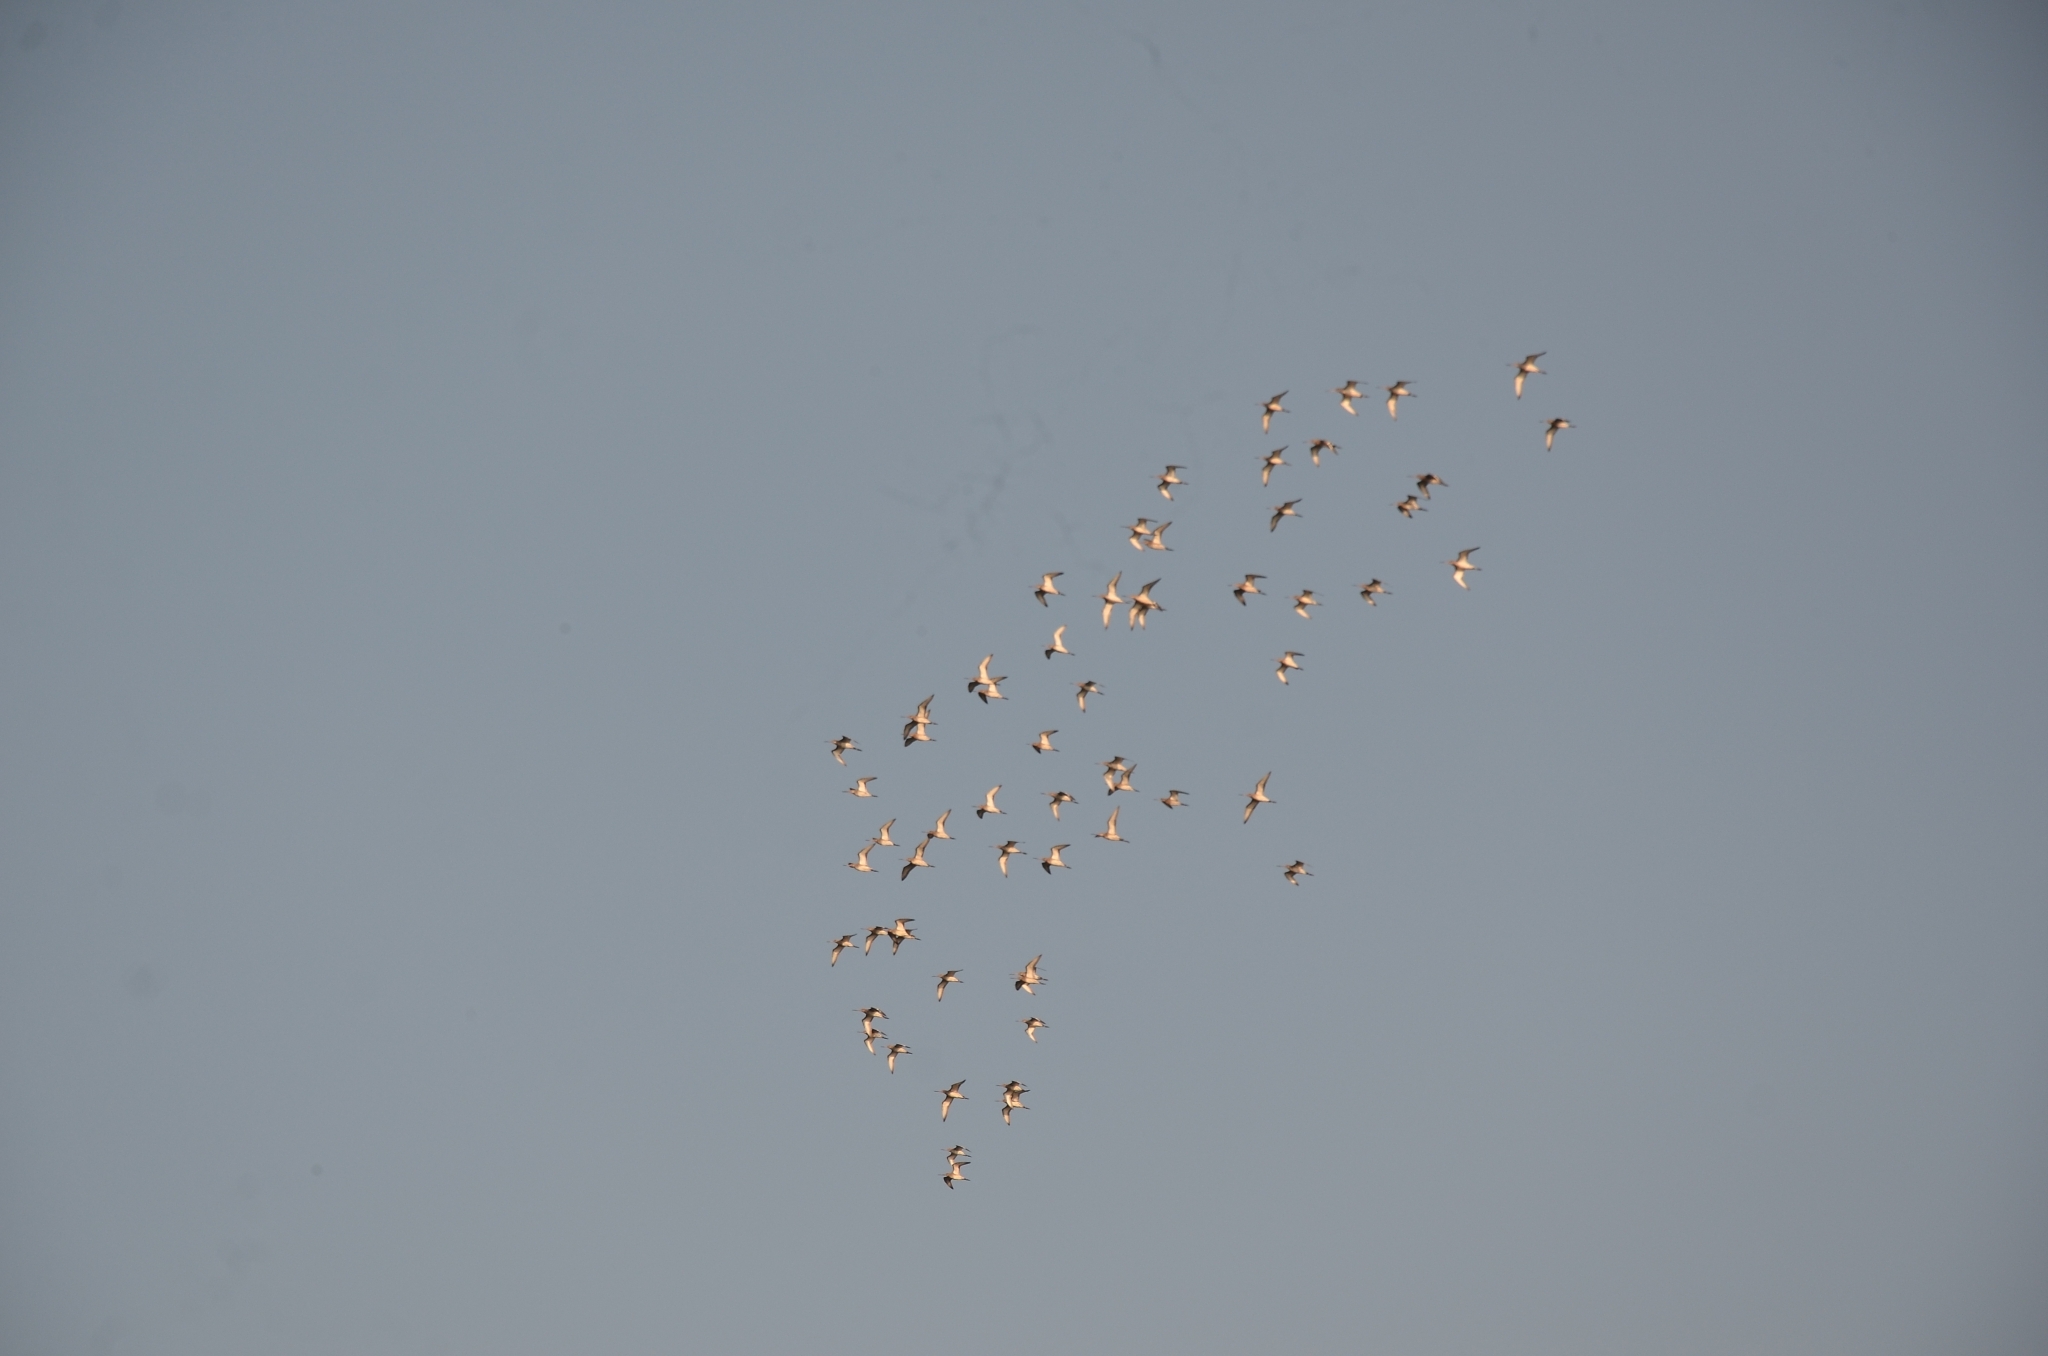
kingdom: Animalia
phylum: Chordata
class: Aves
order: Charadriiformes
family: Scolopacidae
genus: Limosa
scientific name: Limosa limosa
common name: Black-tailed godwit
